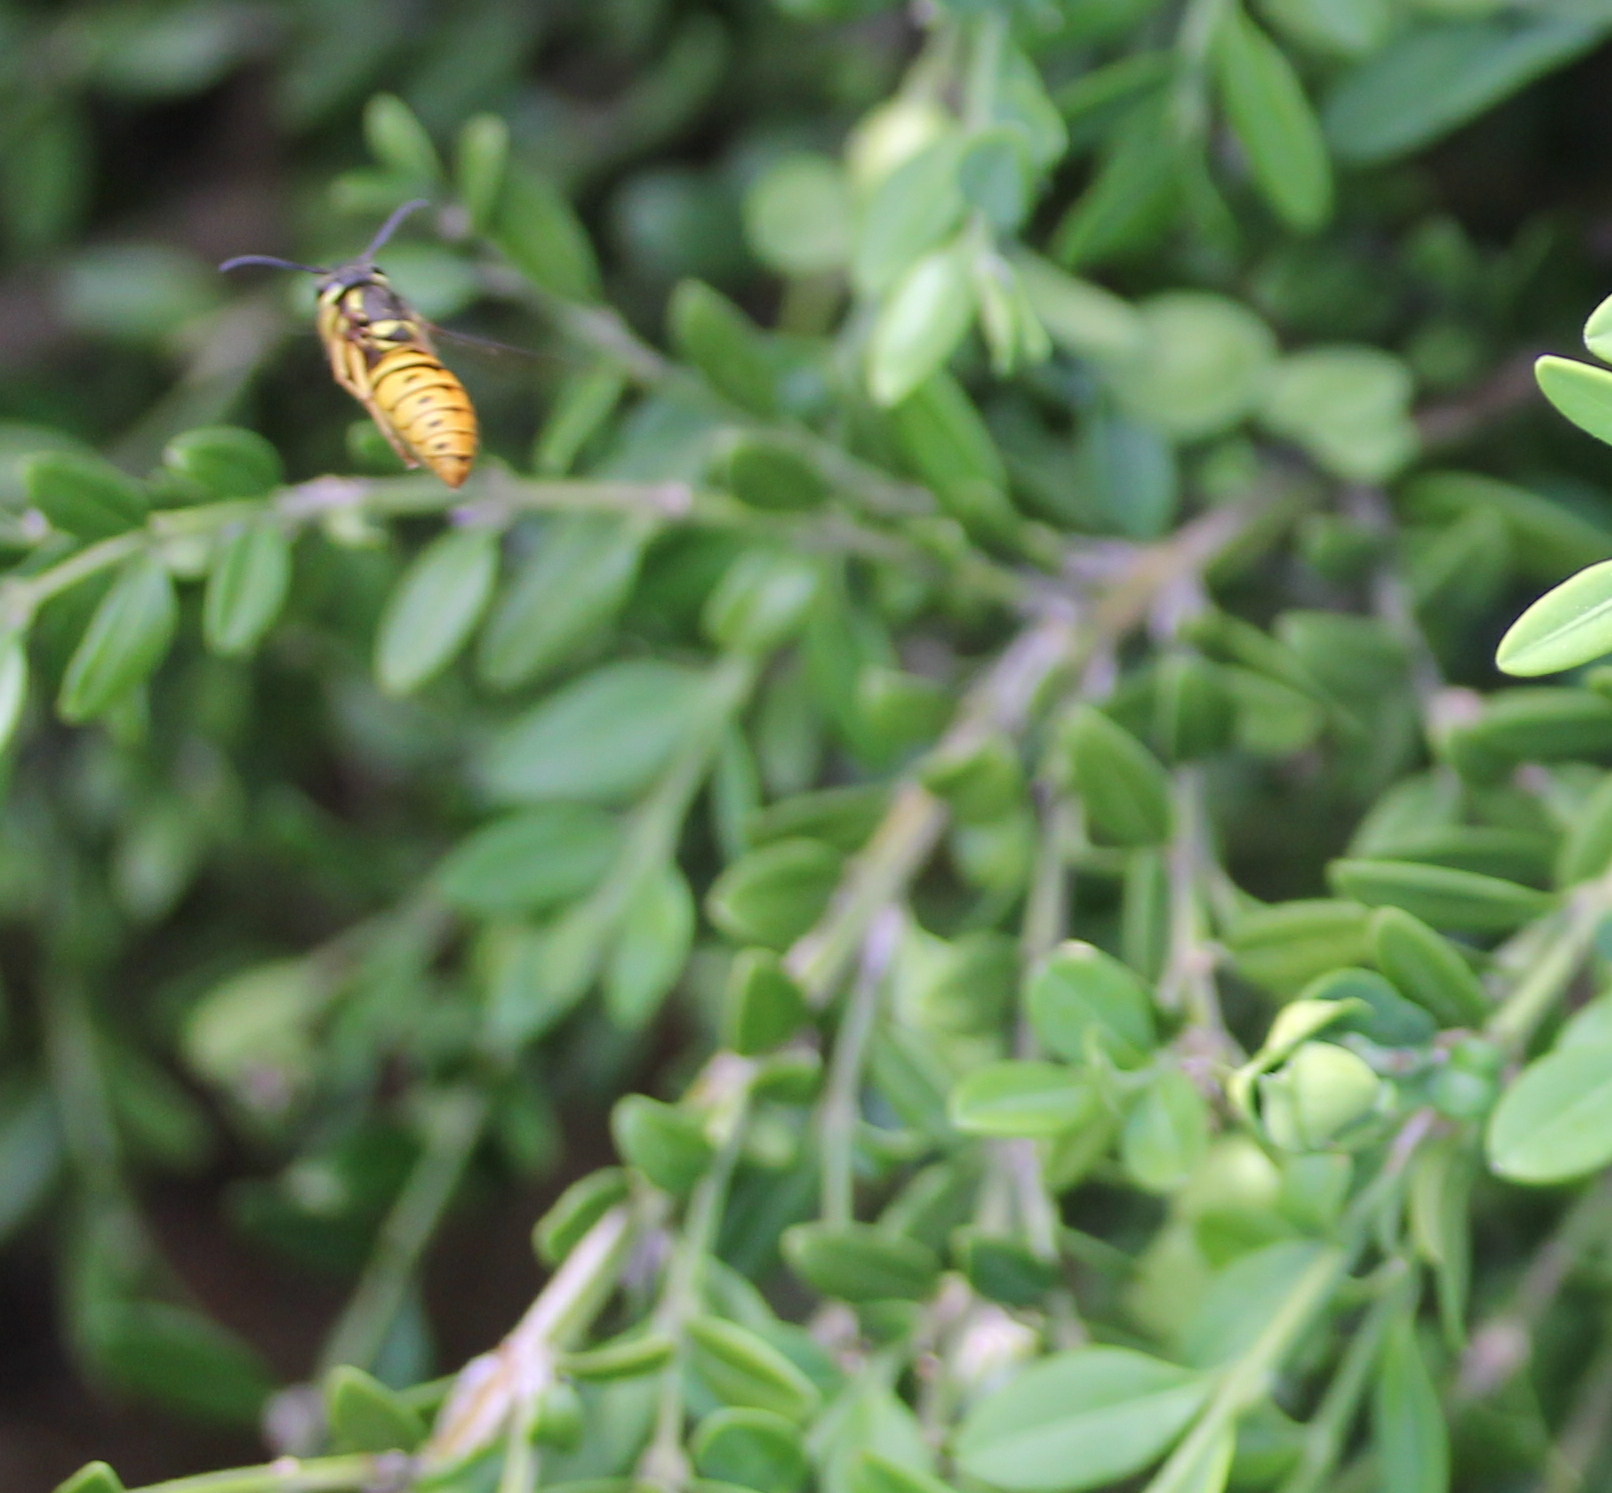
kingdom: Animalia
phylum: Arthropoda
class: Insecta
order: Hymenoptera
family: Vespidae
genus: Vespula
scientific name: Vespula maculifrons
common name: Eastern yellowjacket
